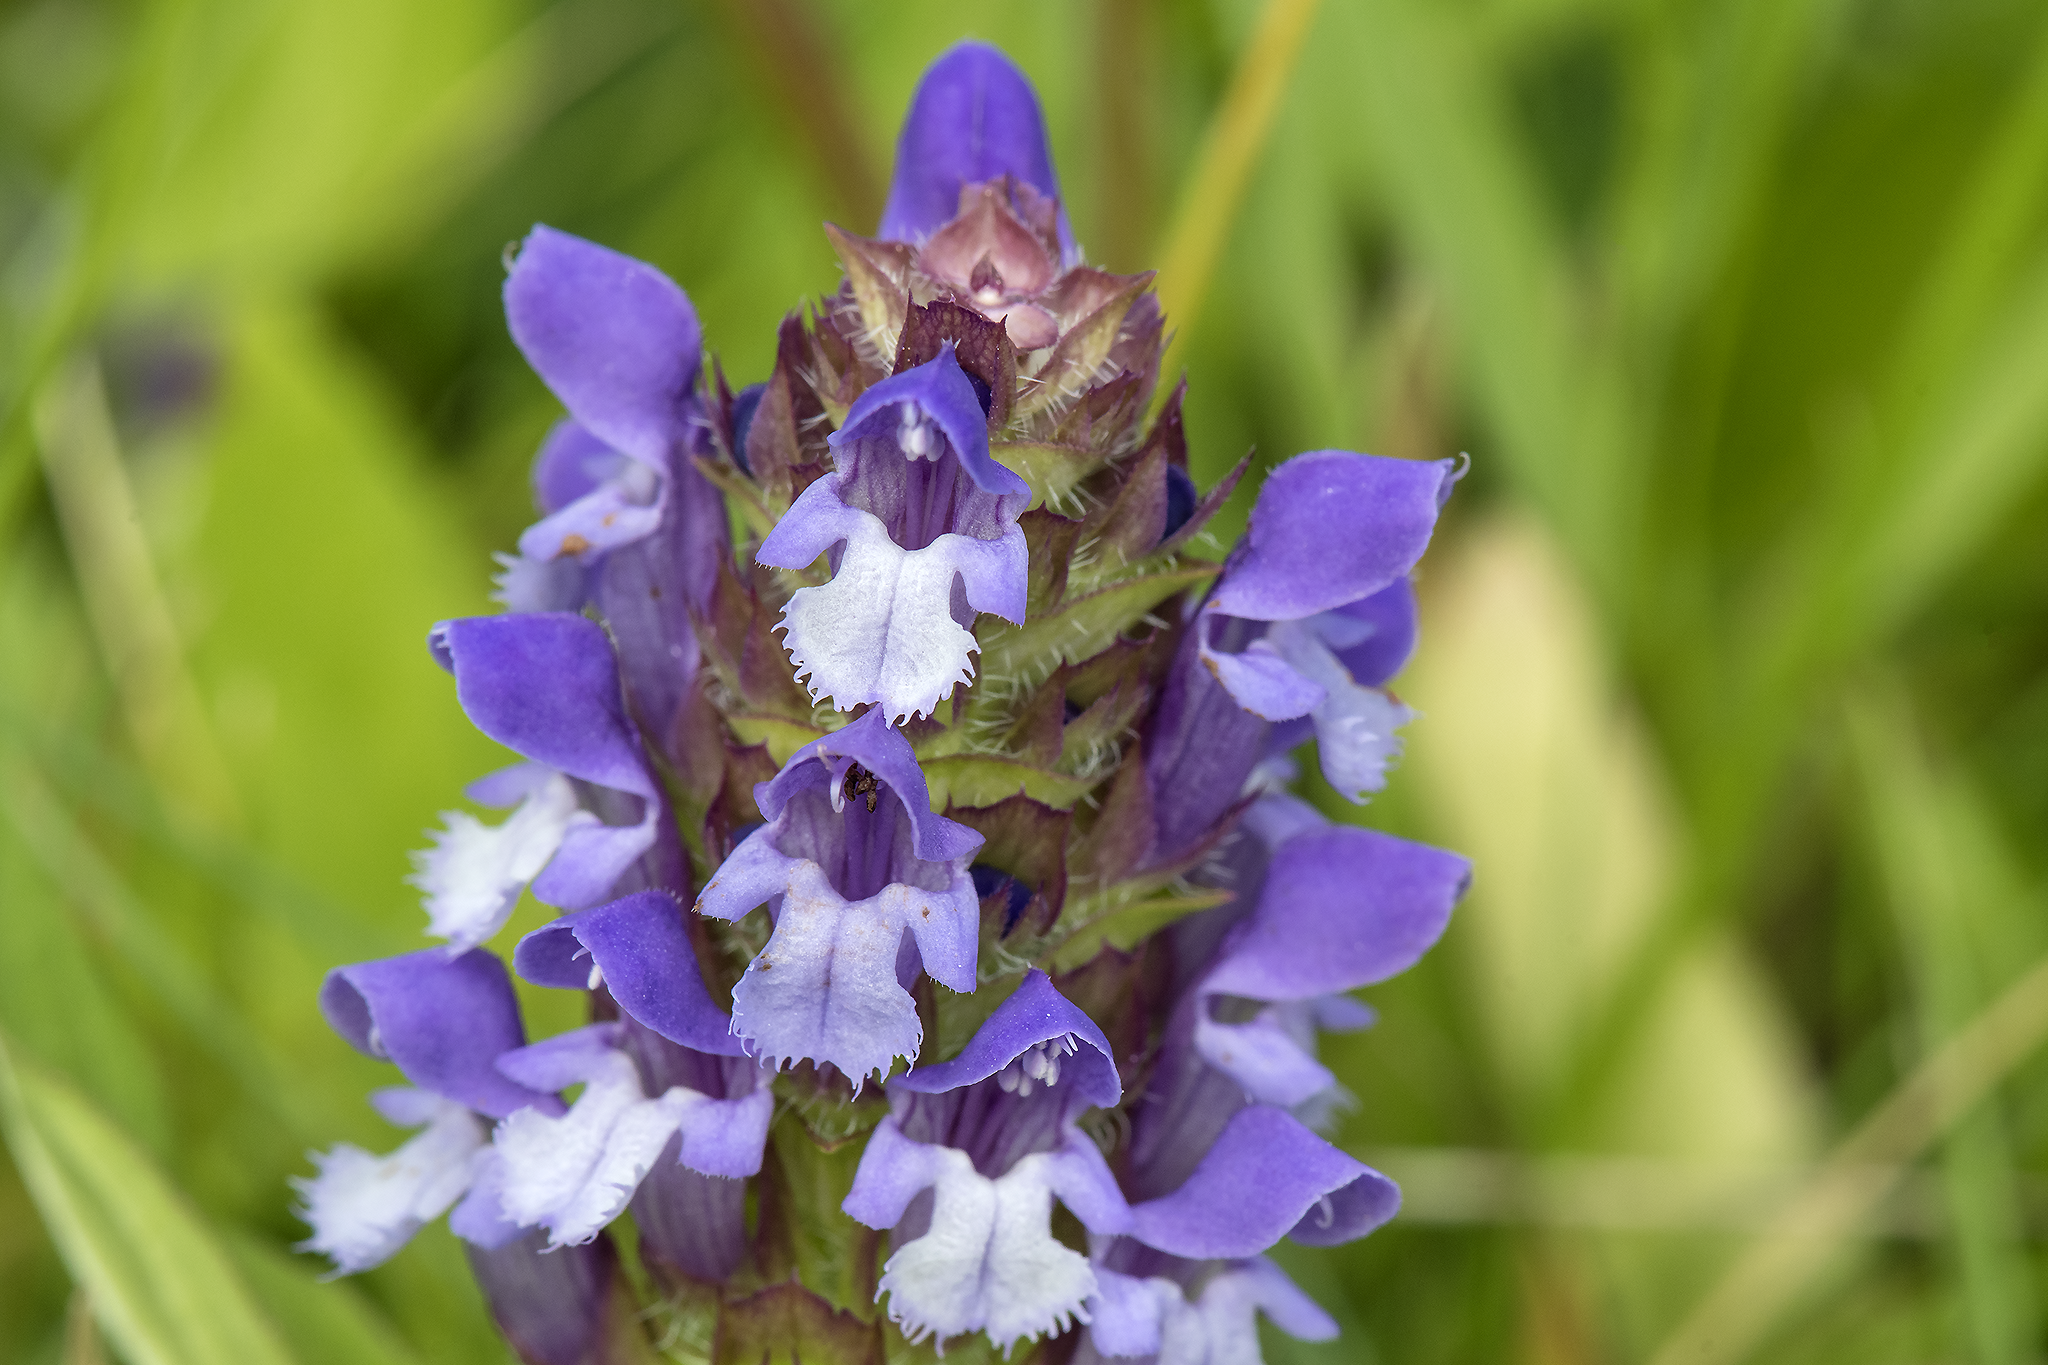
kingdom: Plantae
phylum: Tracheophyta
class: Magnoliopsida
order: Lamiales
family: Lamiaceae
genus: Prunella
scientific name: Prunella vulgaris
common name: Heal-all
